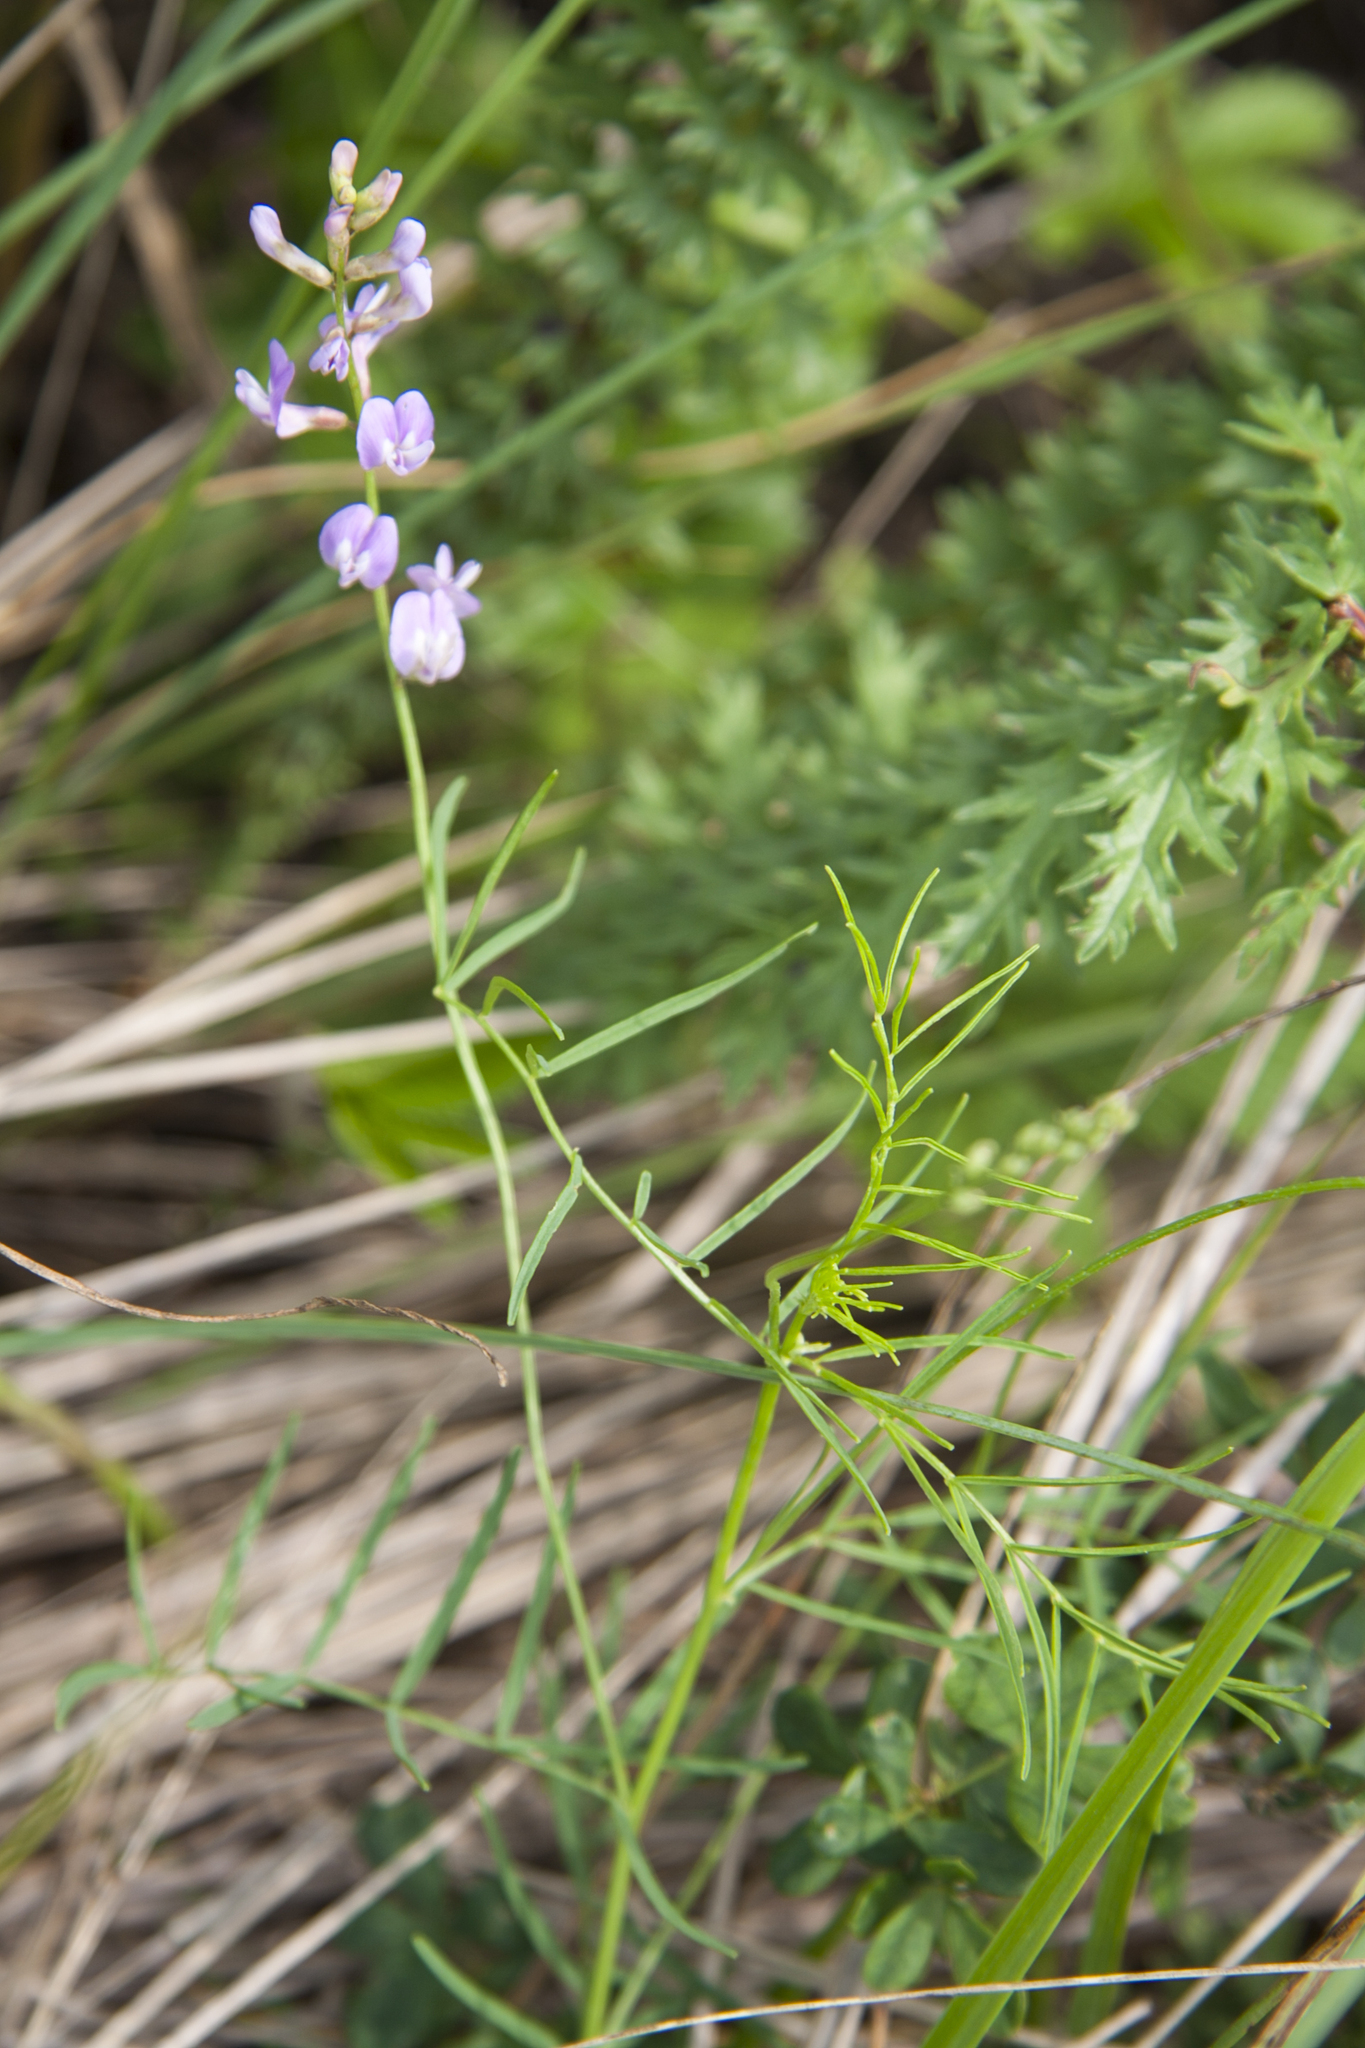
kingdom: Plantae
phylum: Tracheophyta
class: Magnoliopsida
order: Fabales
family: Fabaceae
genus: Astragalus
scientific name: Astragalus austriacus
